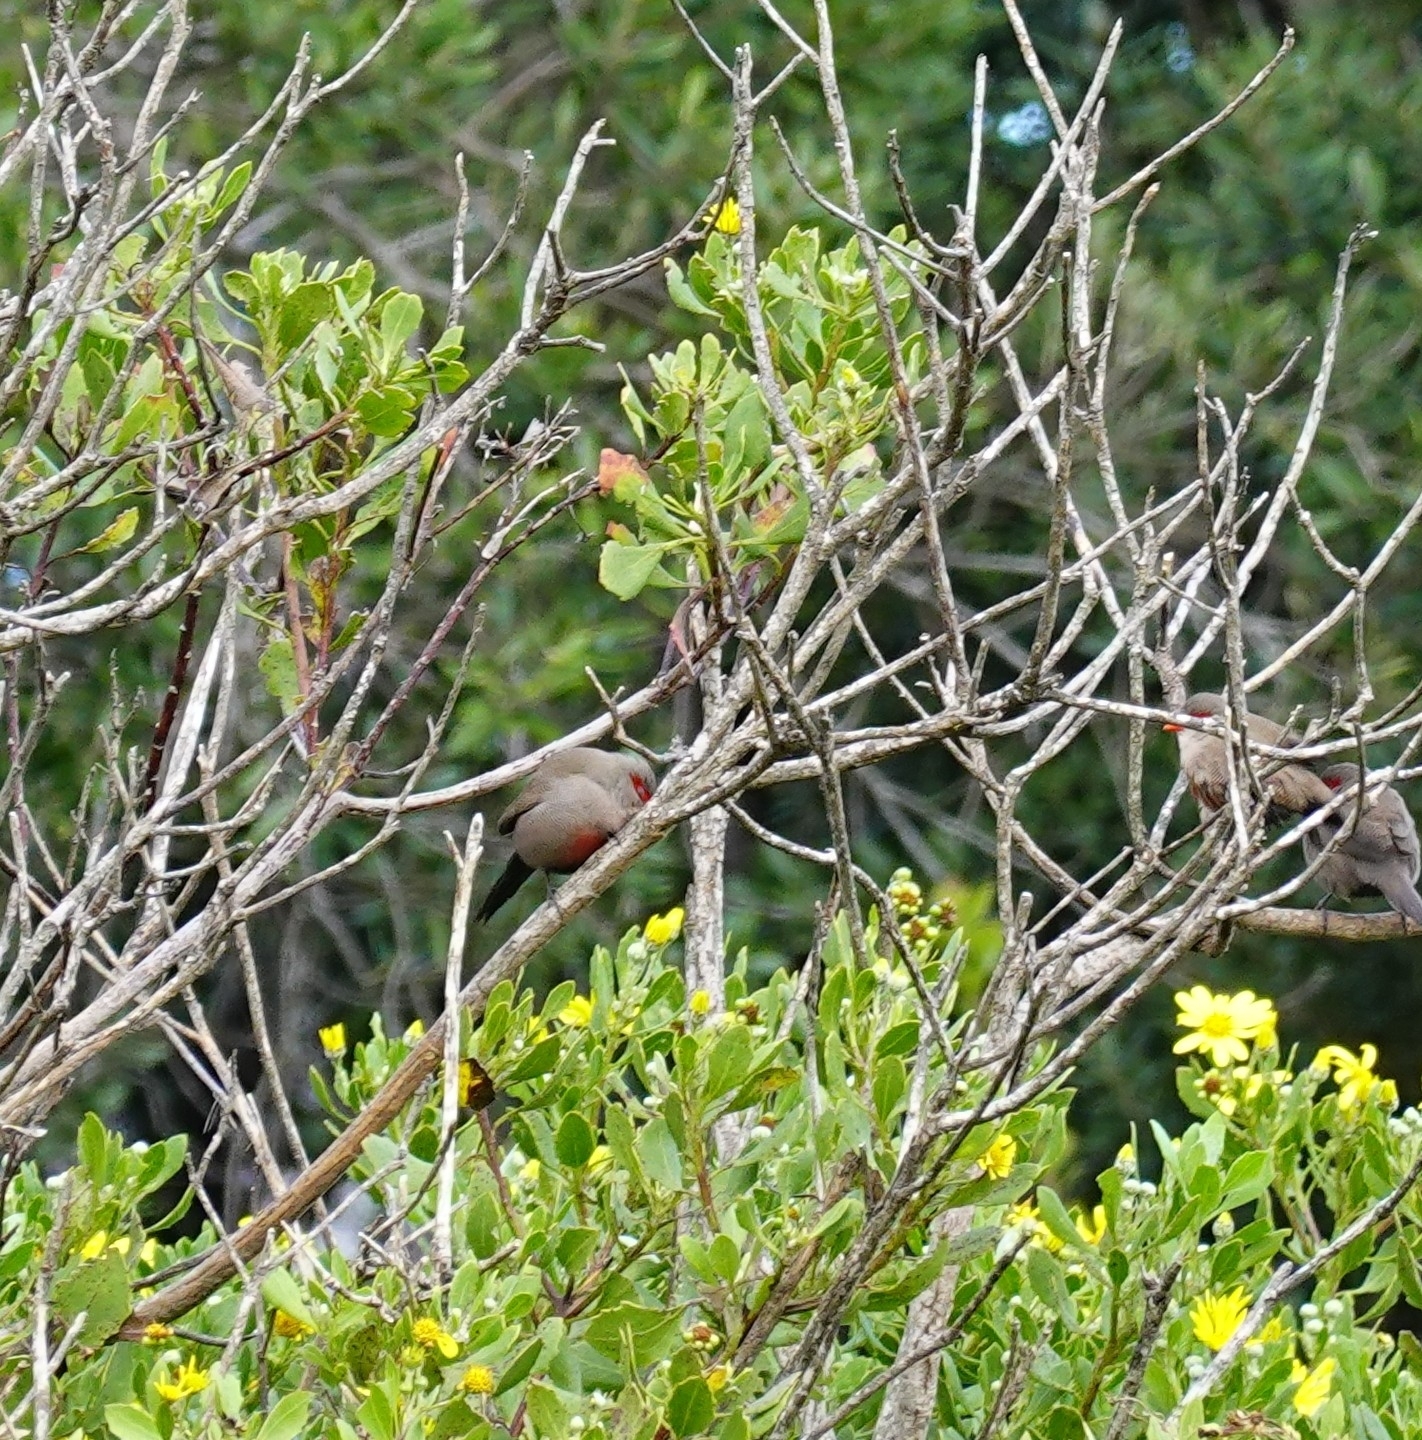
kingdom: Animalia
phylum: Chordata
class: Aves
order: Passeriformes
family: Estrildidae
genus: Estrilda
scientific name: Estrilda astrild
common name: Common waxbill
